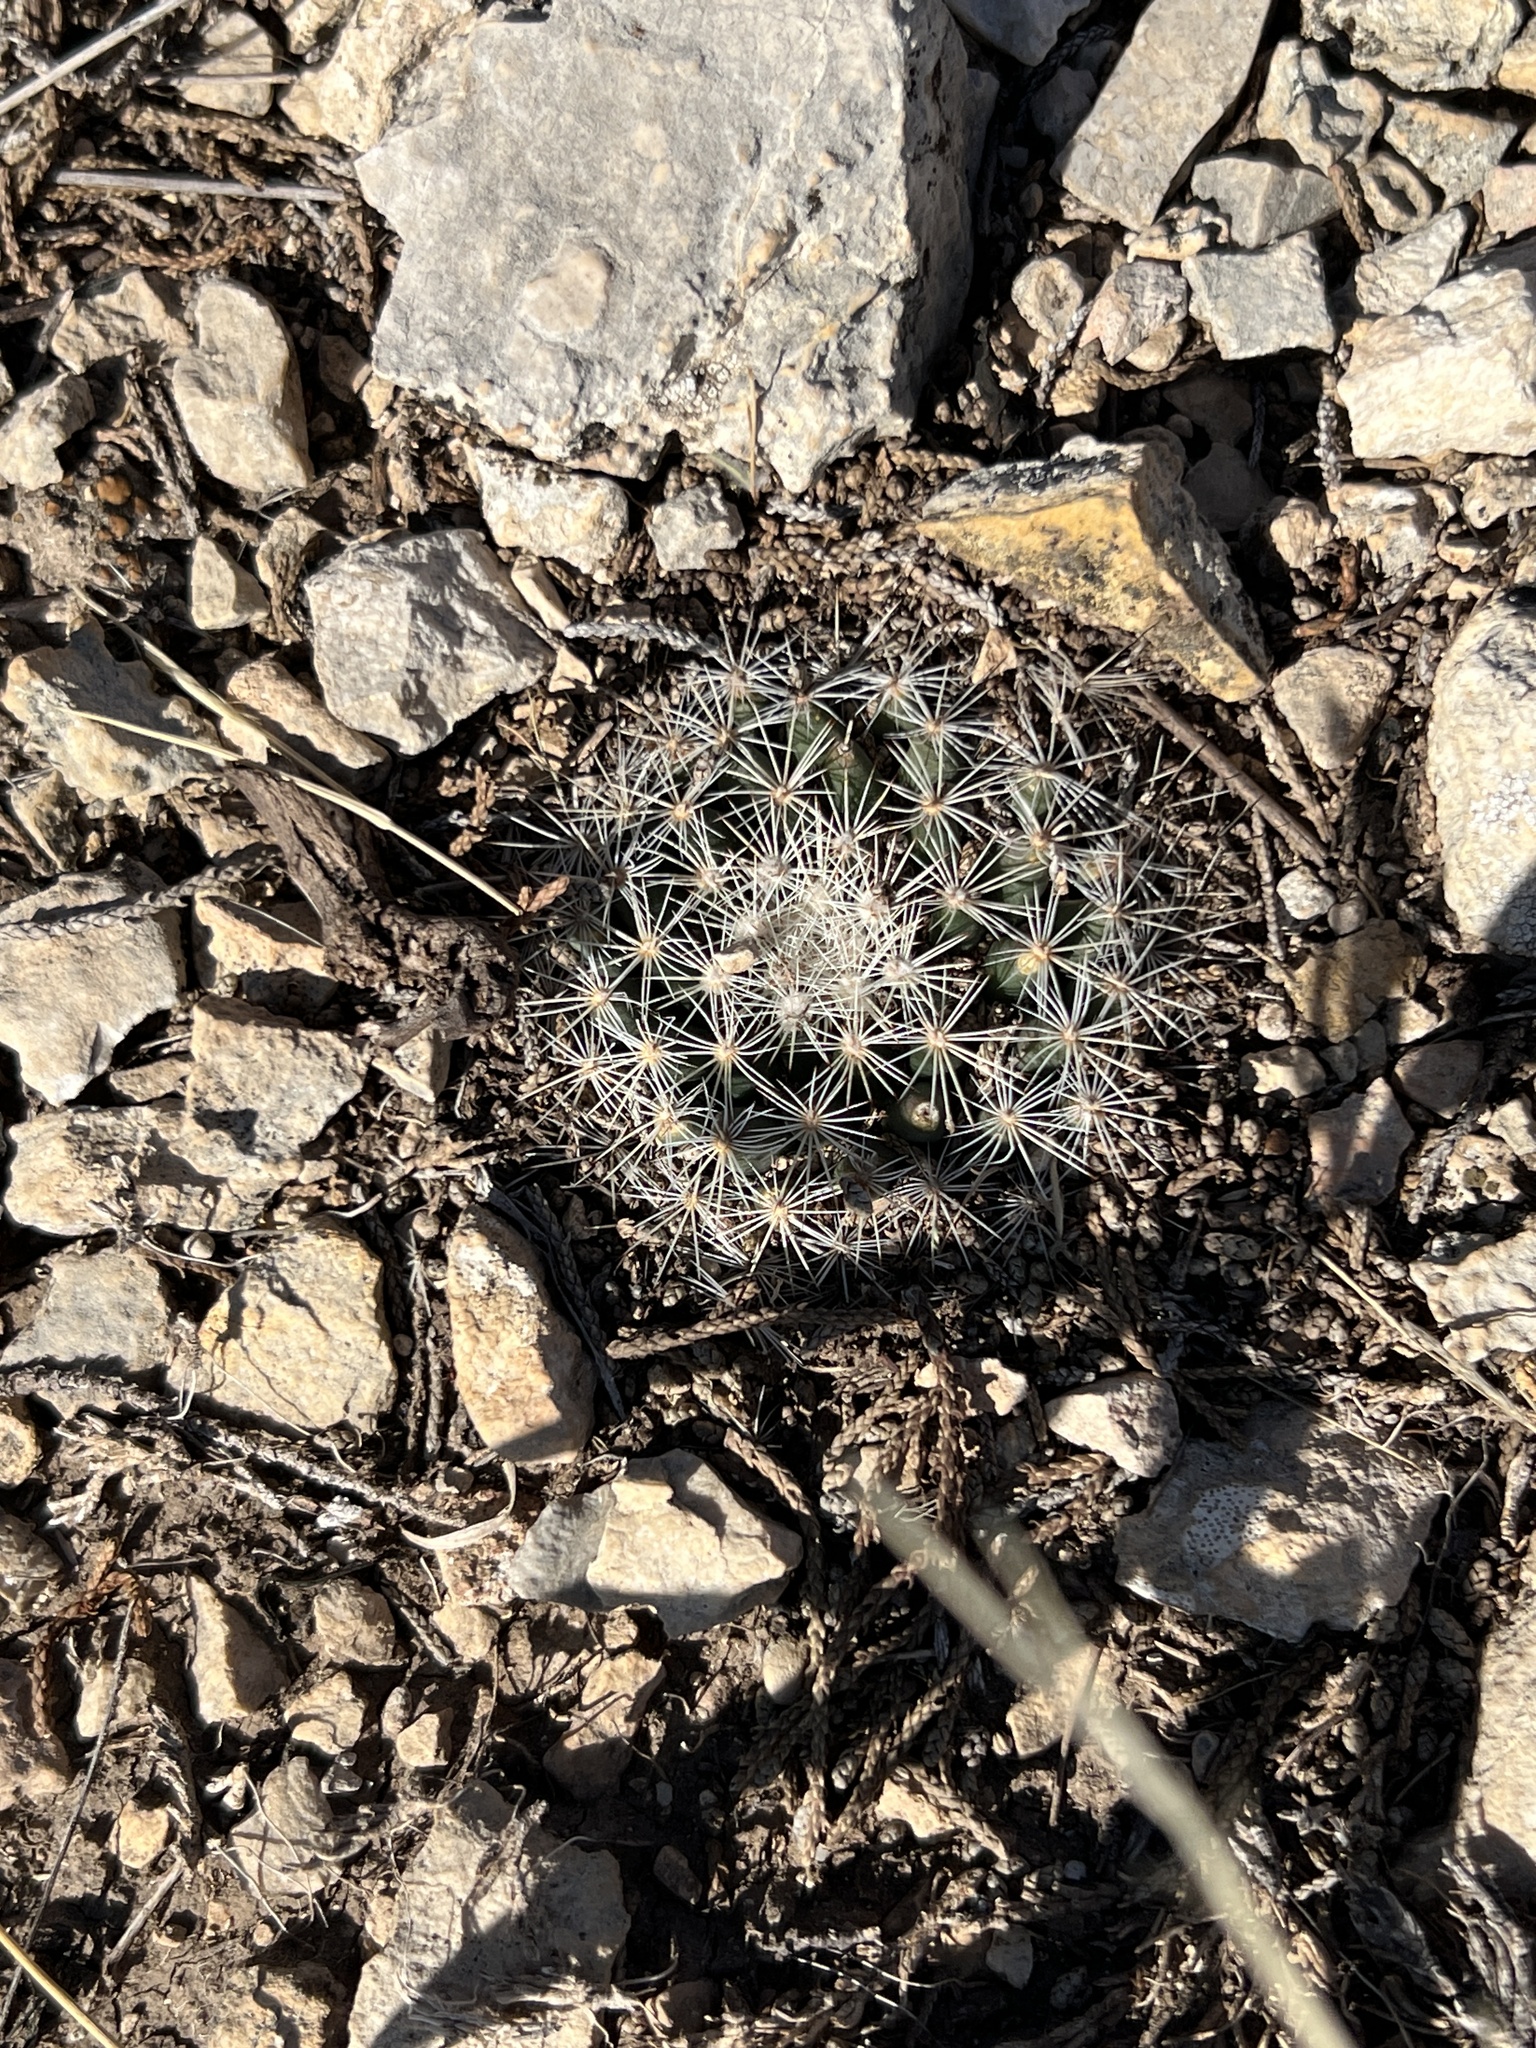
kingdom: Plantae
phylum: Tracheophyta
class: Magnoliopsida
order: Caryophyllales
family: Cactaceae
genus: Mammillaria
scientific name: Mammillaria heyderi
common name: Little nipple cactus
